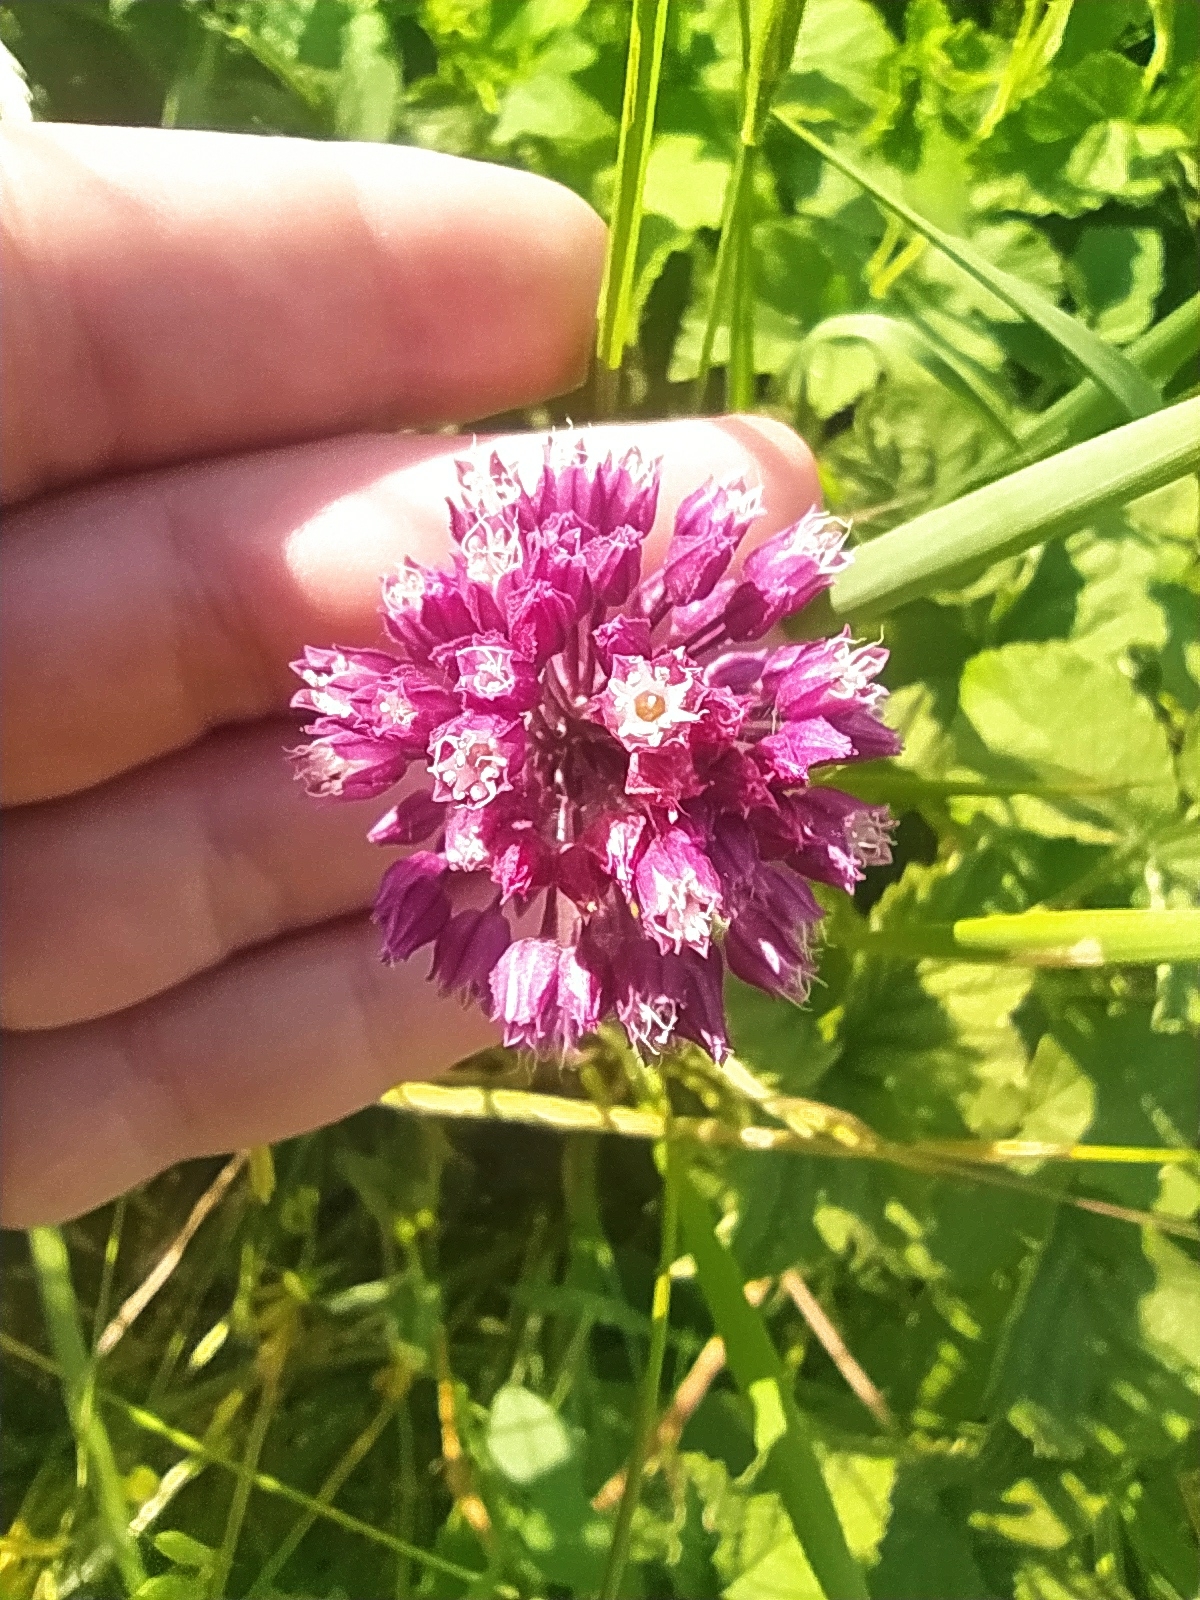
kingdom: Plantae
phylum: Tracheophyta
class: Liliopsida
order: Asparagales
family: Amaryllidaceae
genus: Allium
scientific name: Allium rotundum
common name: Sand leek
